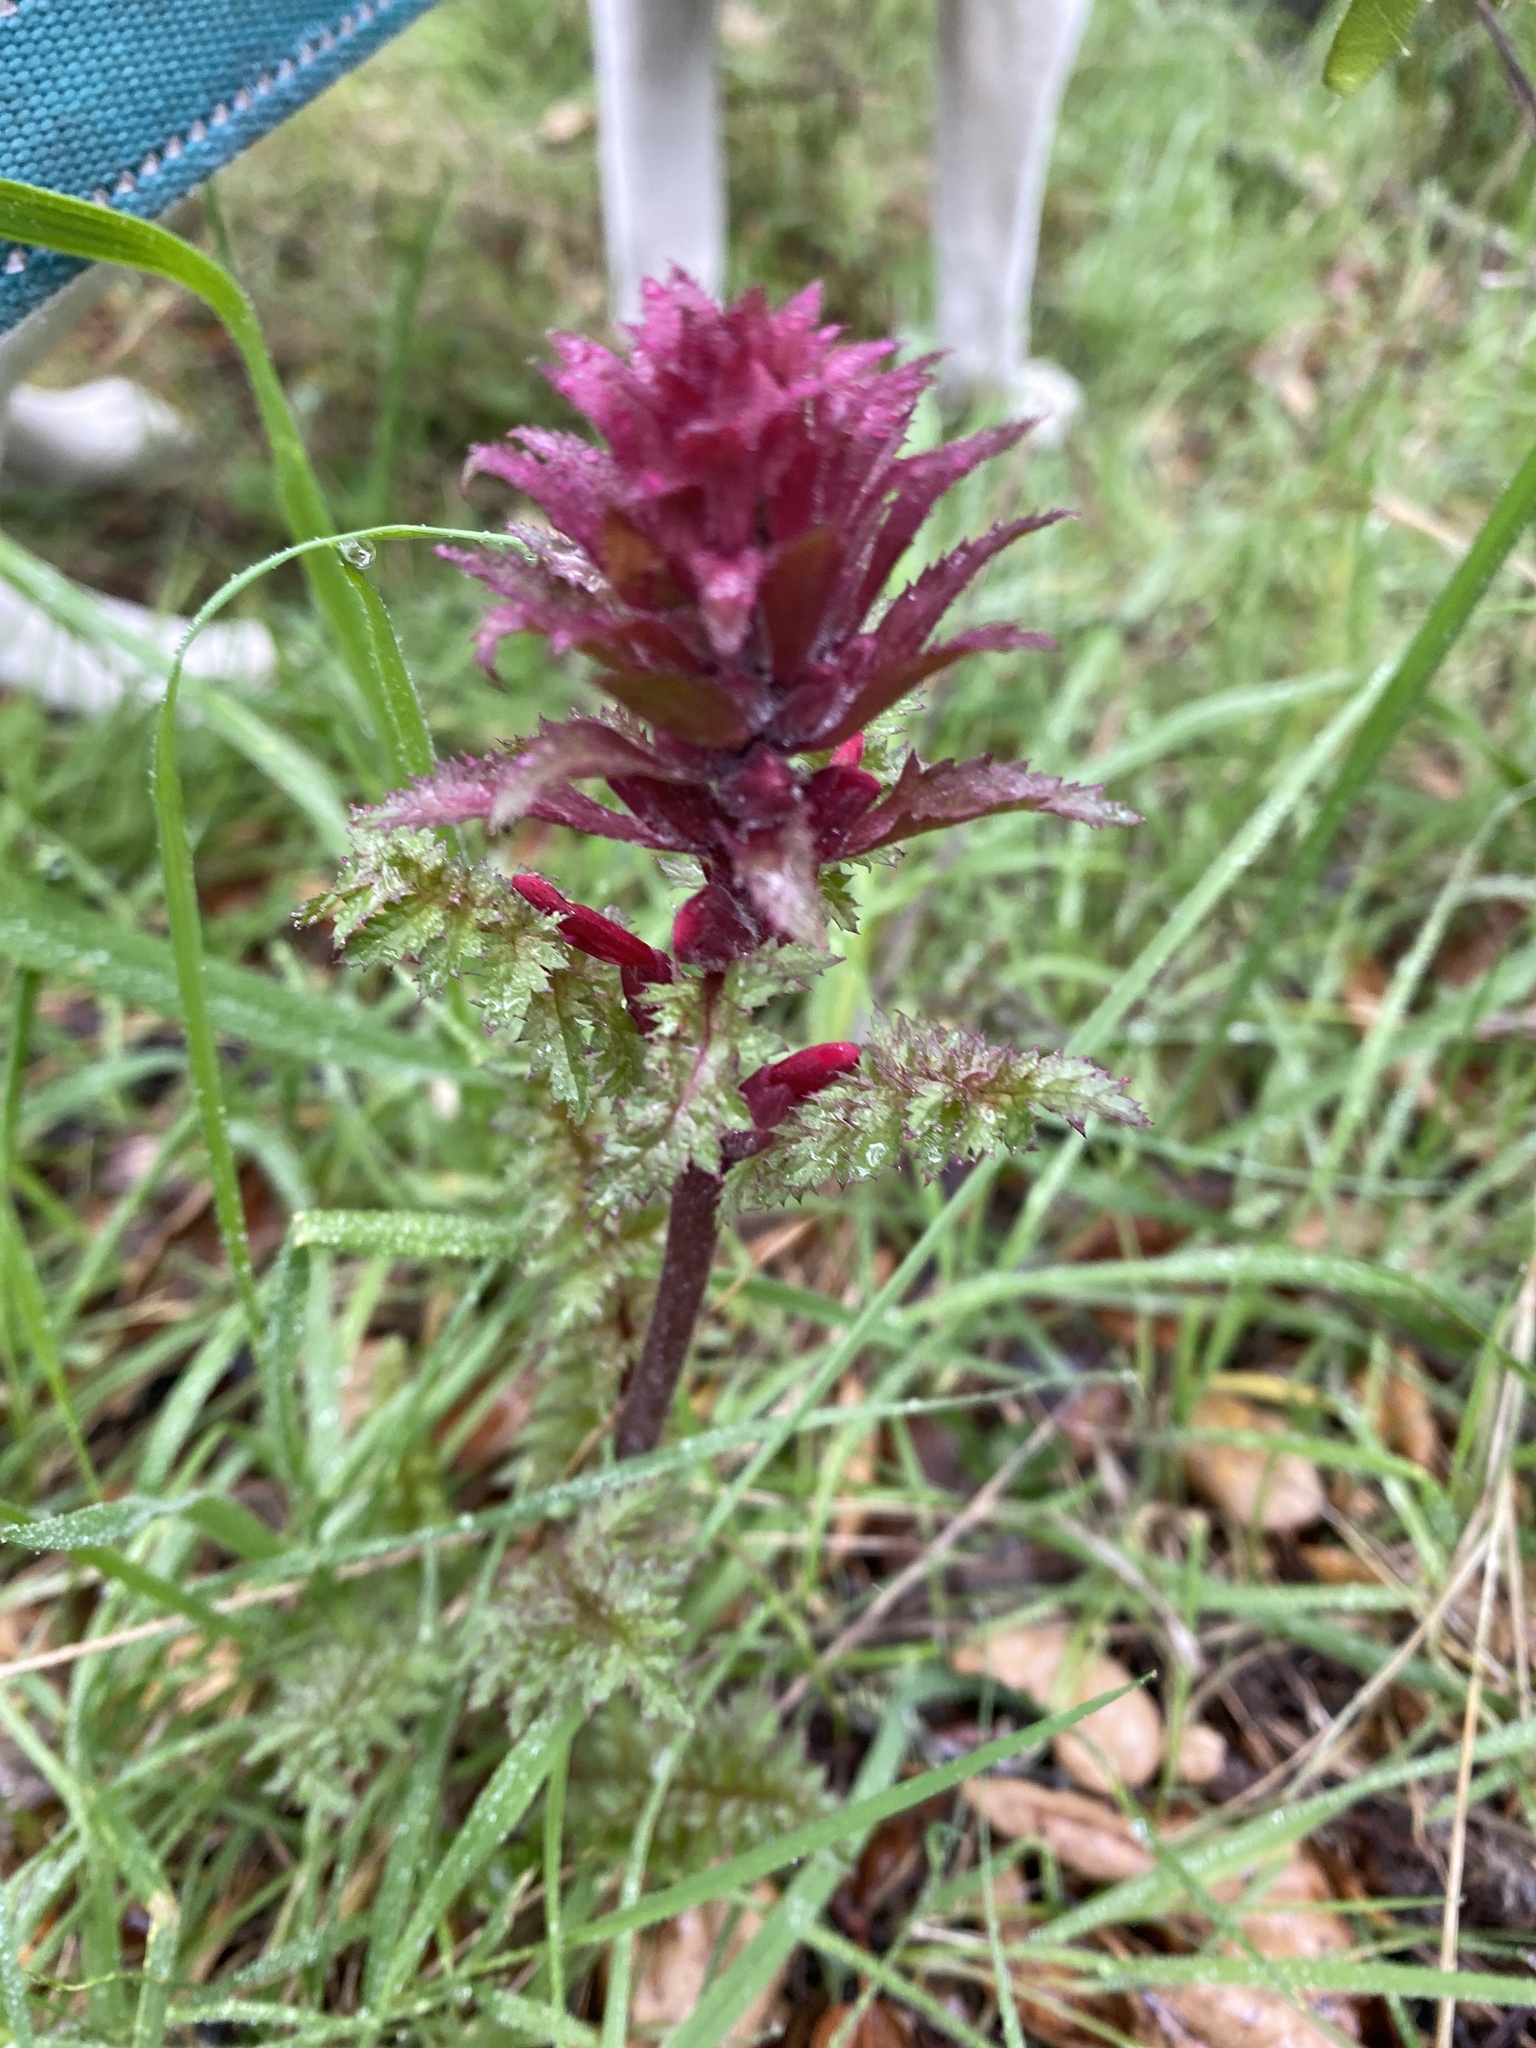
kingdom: Plantae
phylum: Tracheophyta
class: Magnoliopsida
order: Lamiales
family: Orobanchaceae
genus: Pedicularis
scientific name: Pedicularis densiflora
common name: Indian warrior
